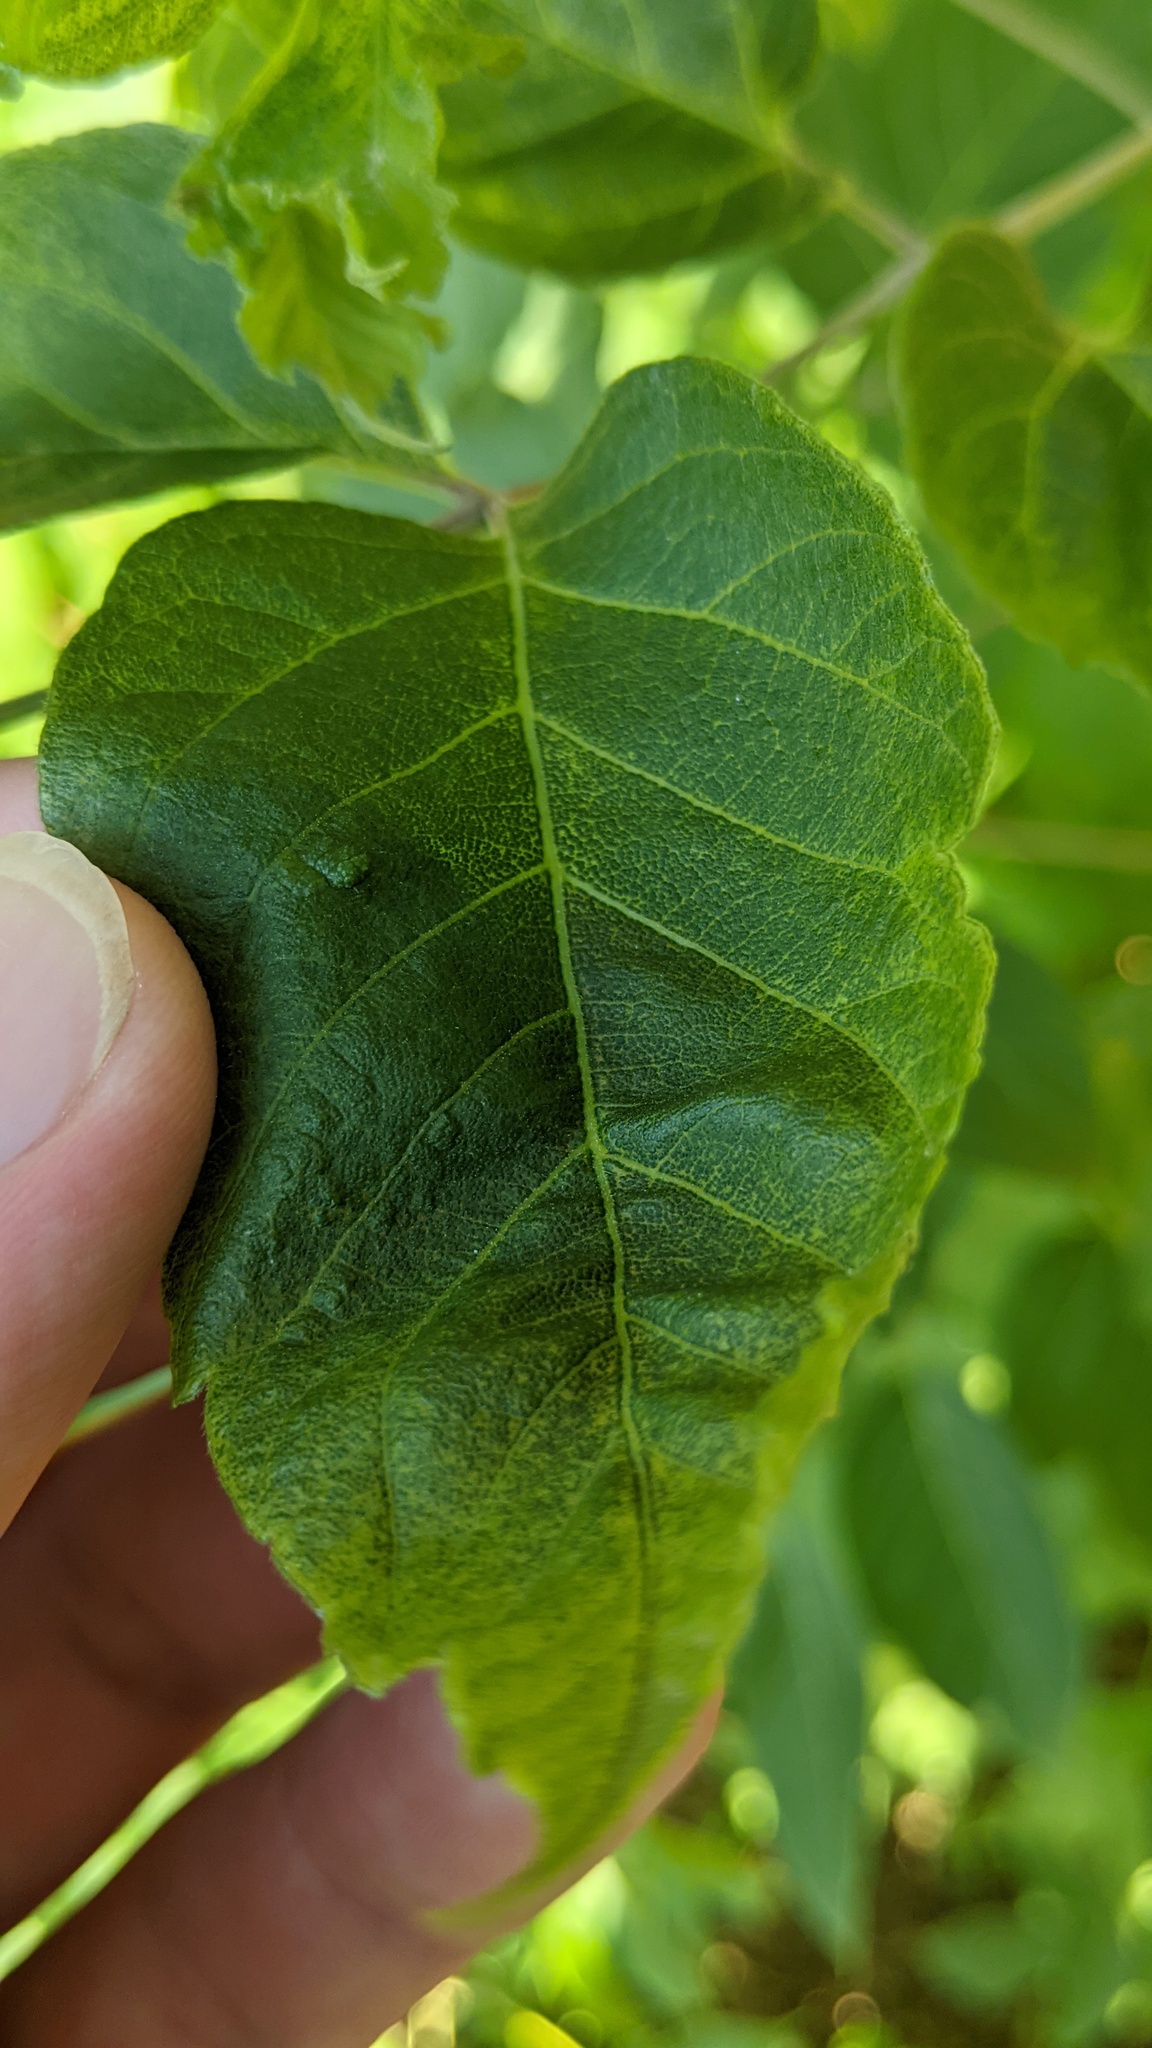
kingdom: Animalia
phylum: Arthropoda
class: Arachnida
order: Trombidiformes
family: Eriophyidae
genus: Aceria
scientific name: Aceria
